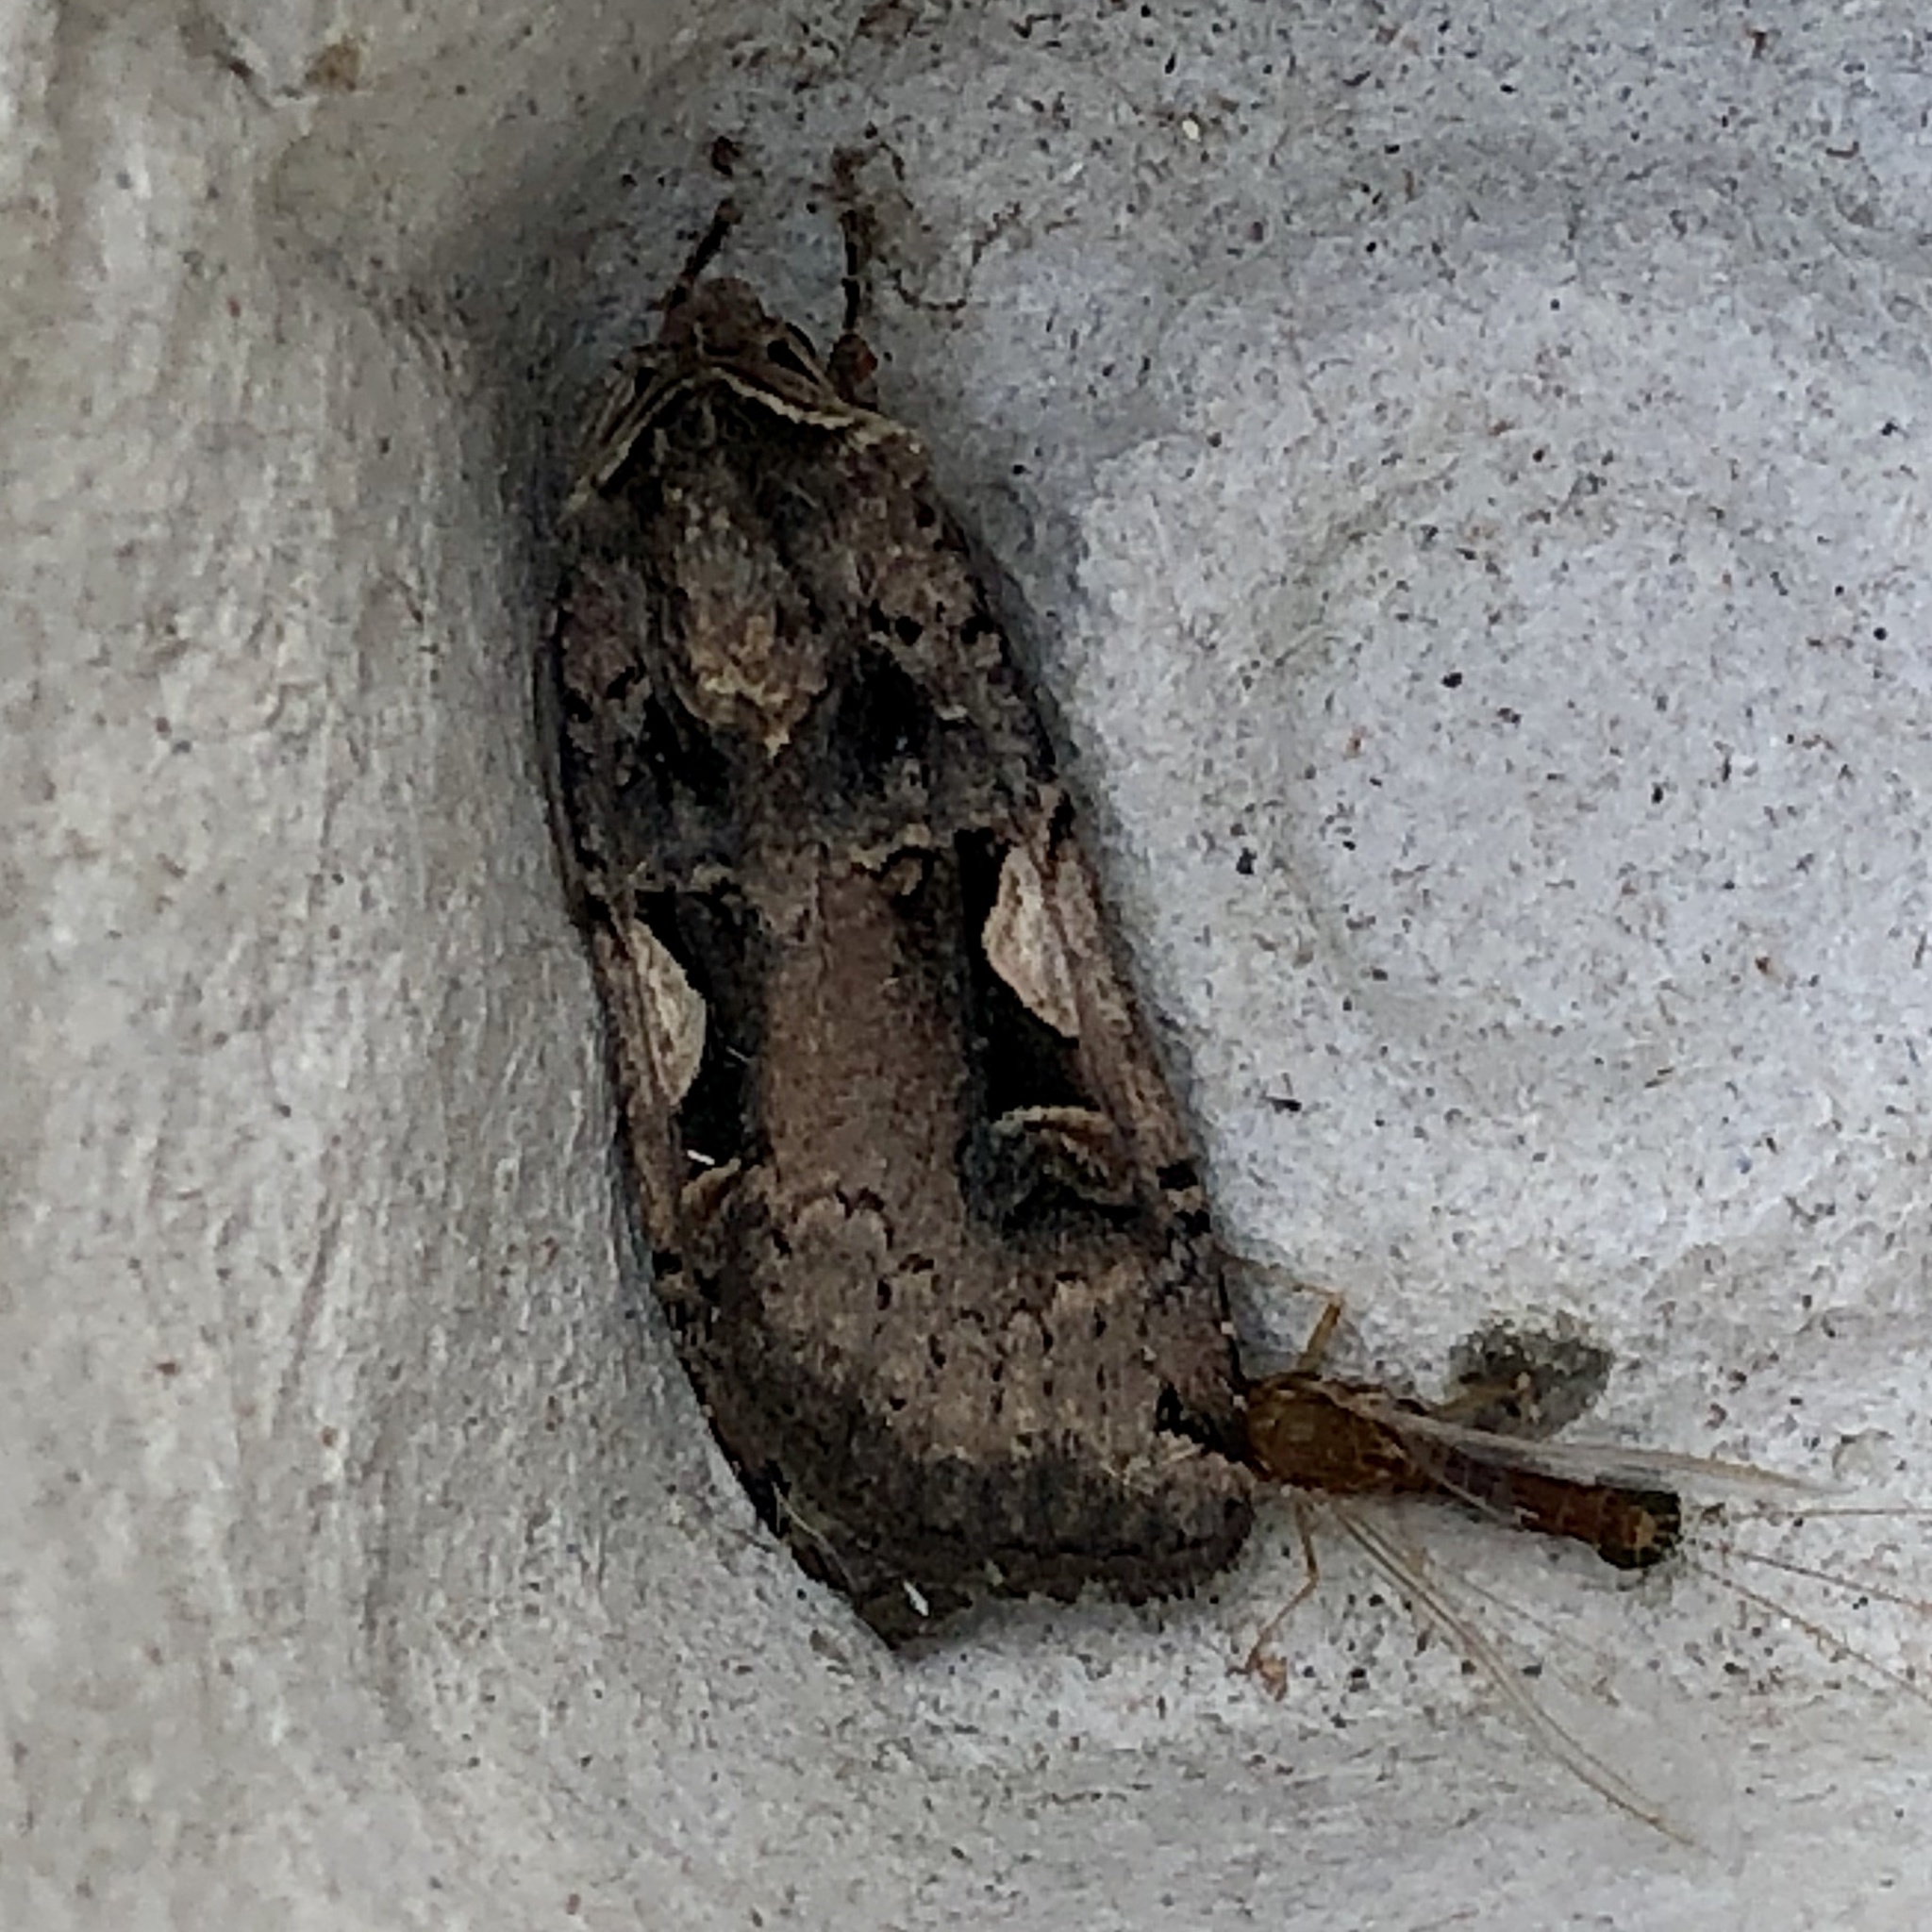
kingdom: Animalia
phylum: Arthropoda
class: Insecta
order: Lepidoptera
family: Noctuidae
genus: Xestia
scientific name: Xestia c-nigrum
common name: Setaceous hebrew character
